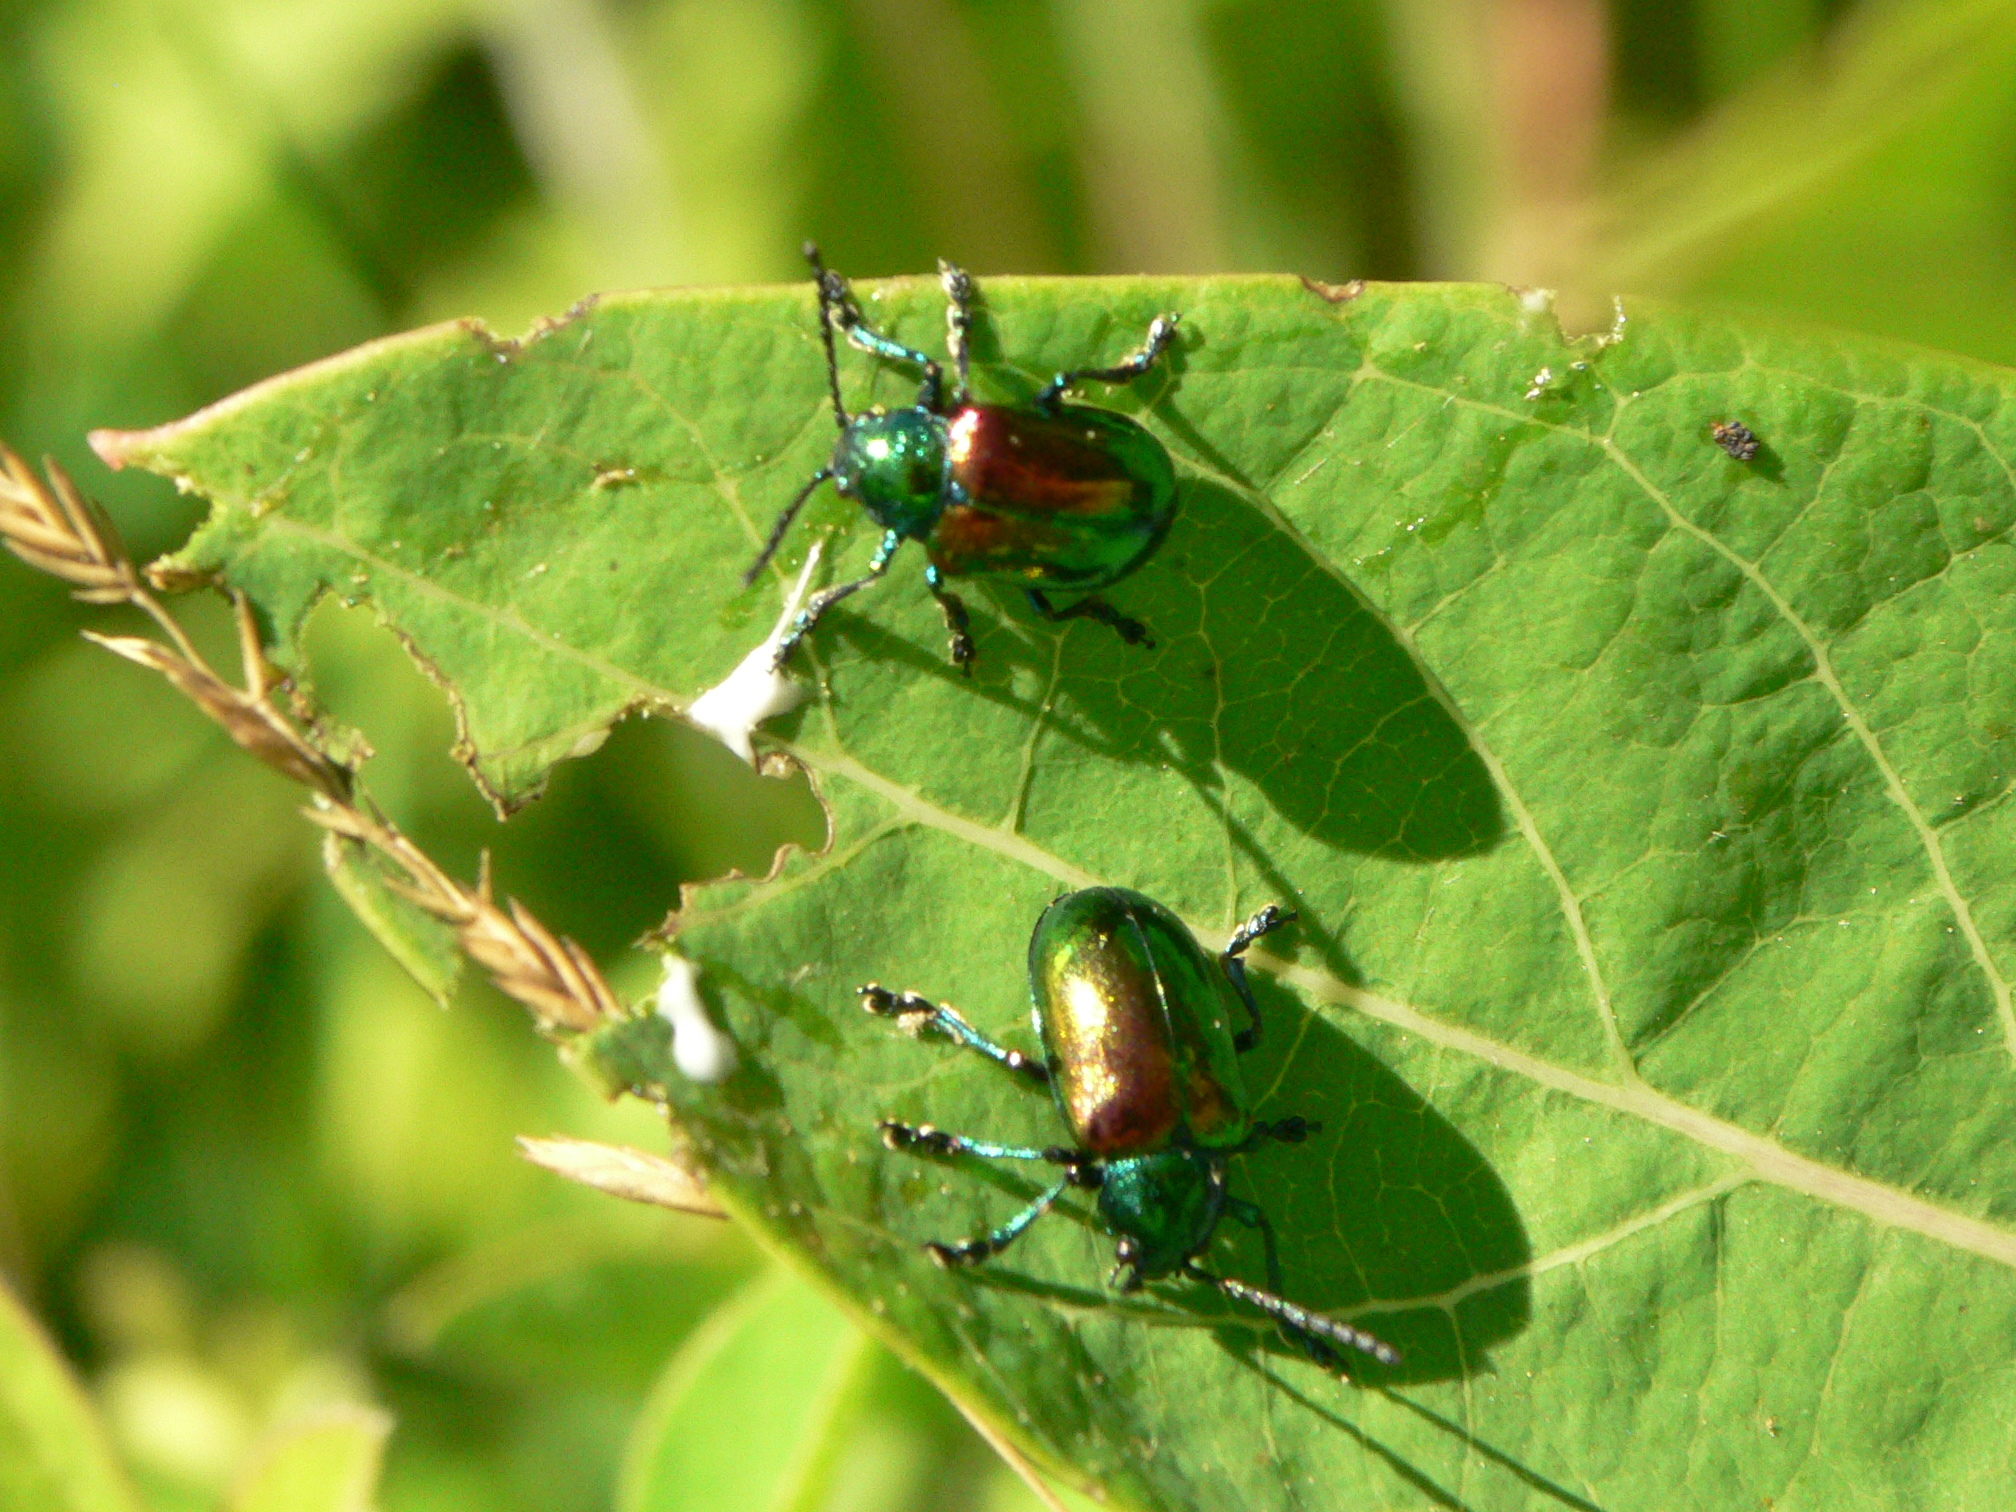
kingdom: Animalia
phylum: Arthropoda
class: Insecta
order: Coleoptera
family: Chrysomelidae
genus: Chrysochus
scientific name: Chrysochus auratus
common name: Dogbane leaf beetle
